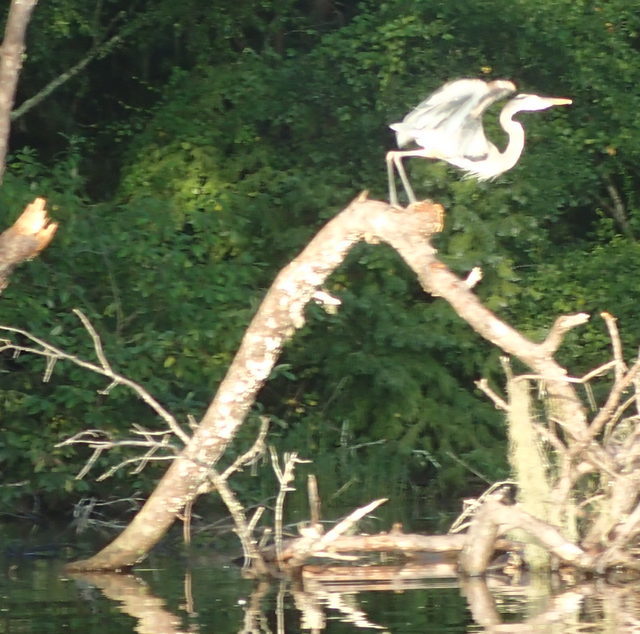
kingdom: Animalia
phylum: Chordata
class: Aves
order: Pelecaniformes
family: Ardeidae
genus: Ardea
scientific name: Ardea herodias
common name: Great blue heron
